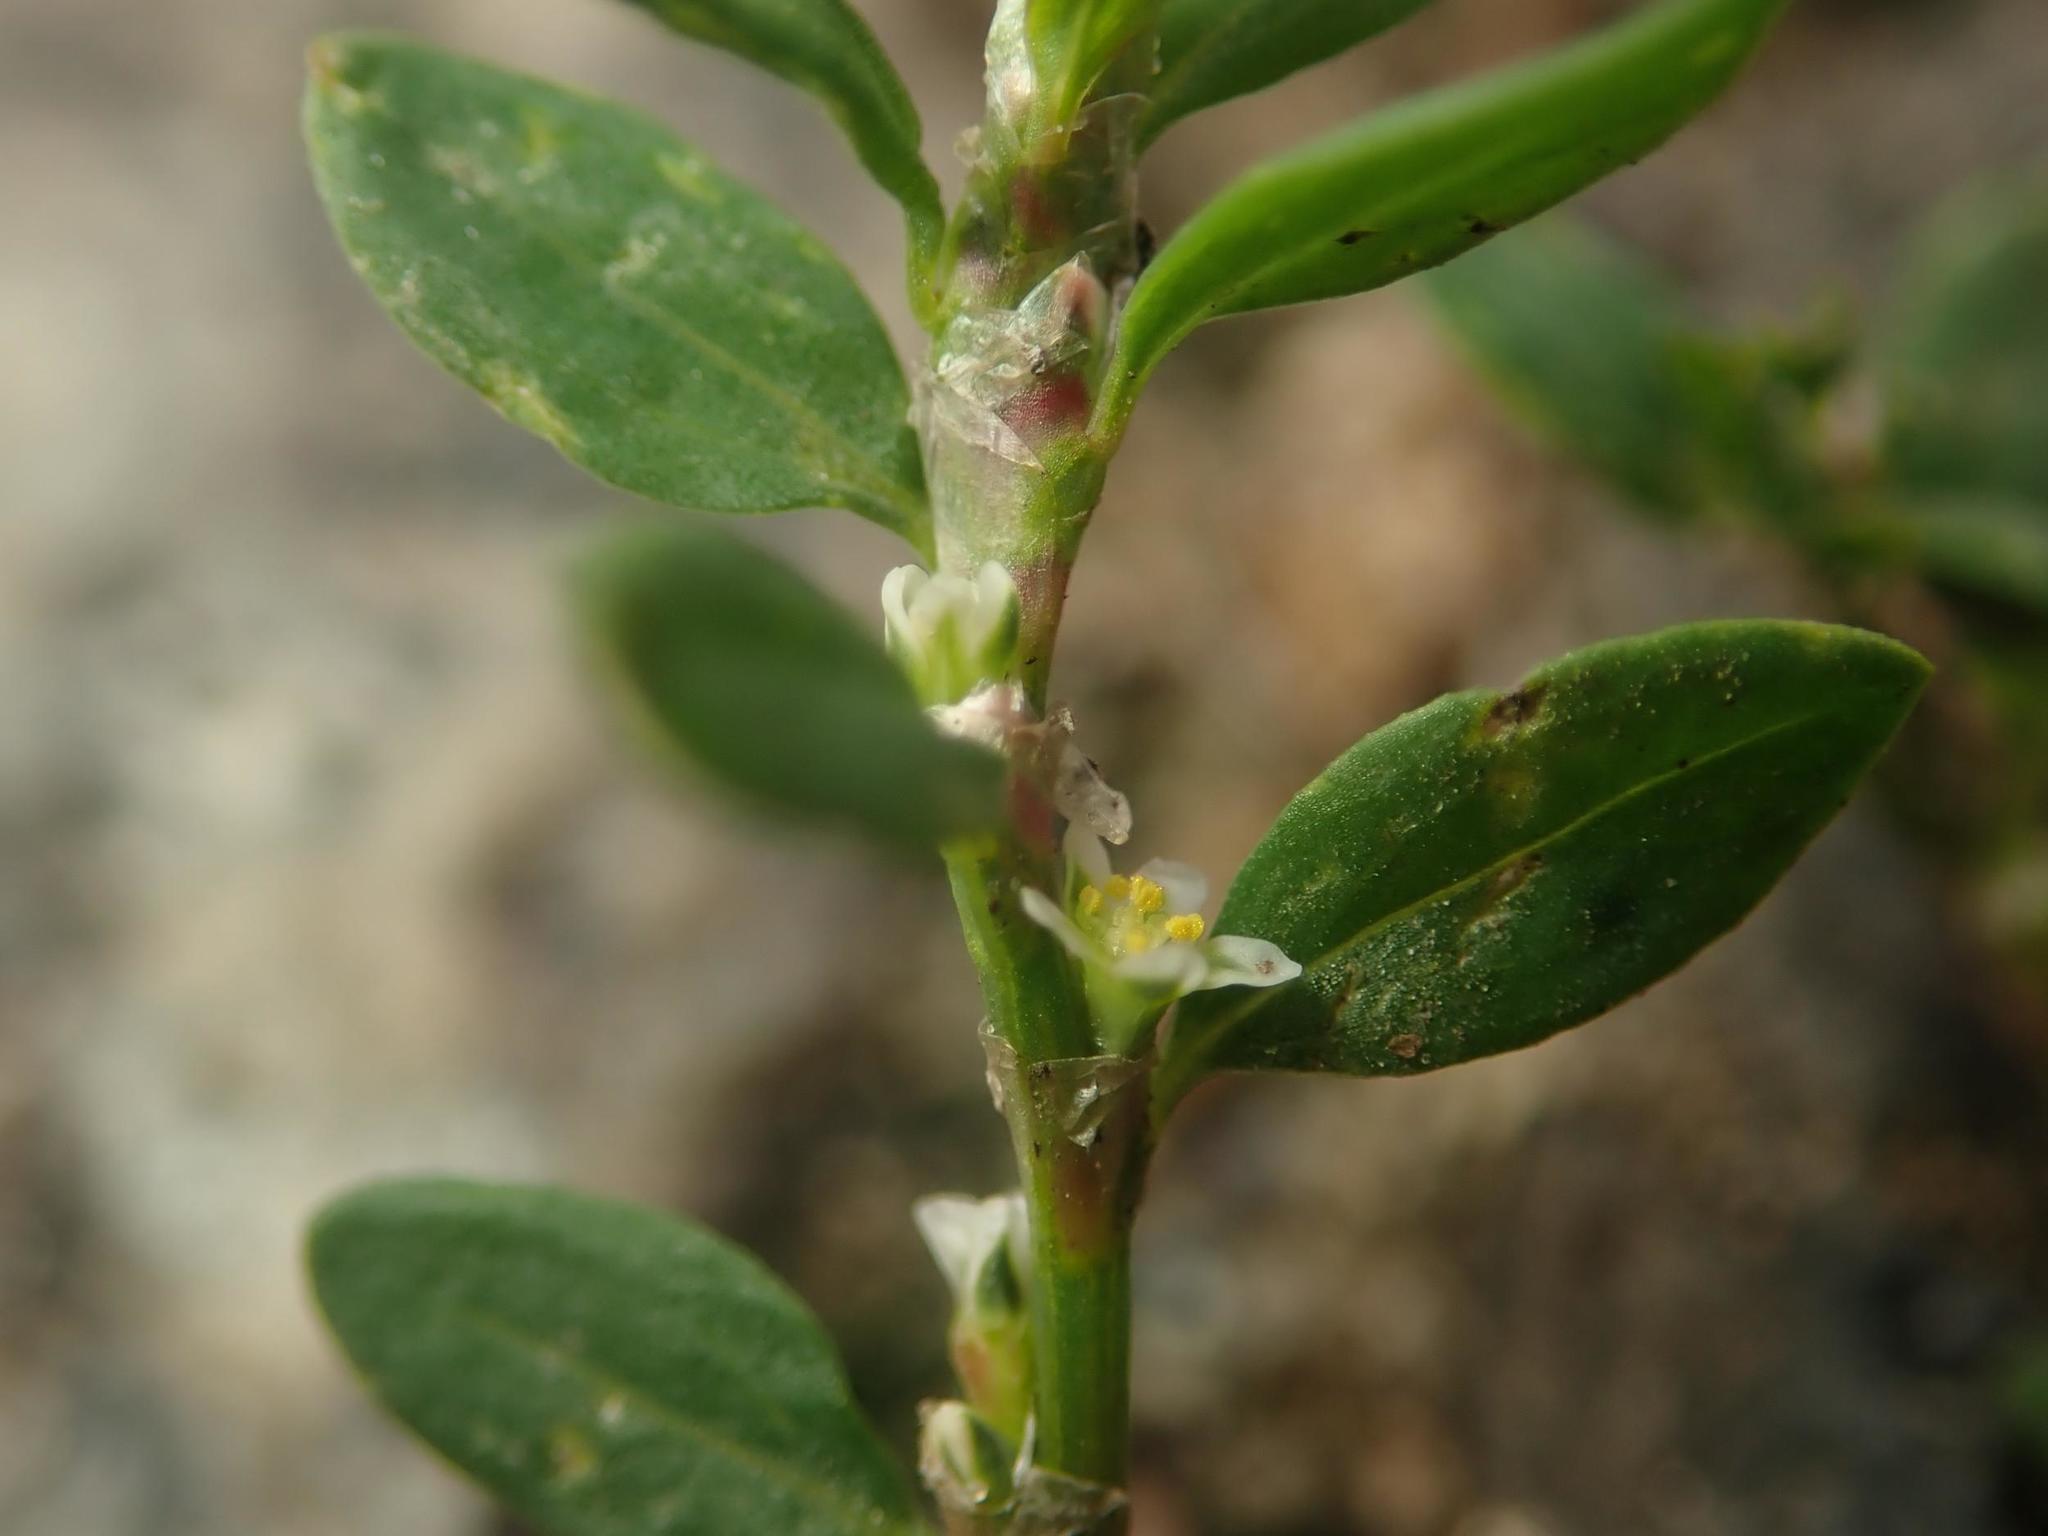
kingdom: Plantae
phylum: Tracheophyta
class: Magnoliopsida
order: Caryophyllales
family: Polygonaceae
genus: Polygonum
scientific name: Polygonum aviculare
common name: Prostrate knotweed
